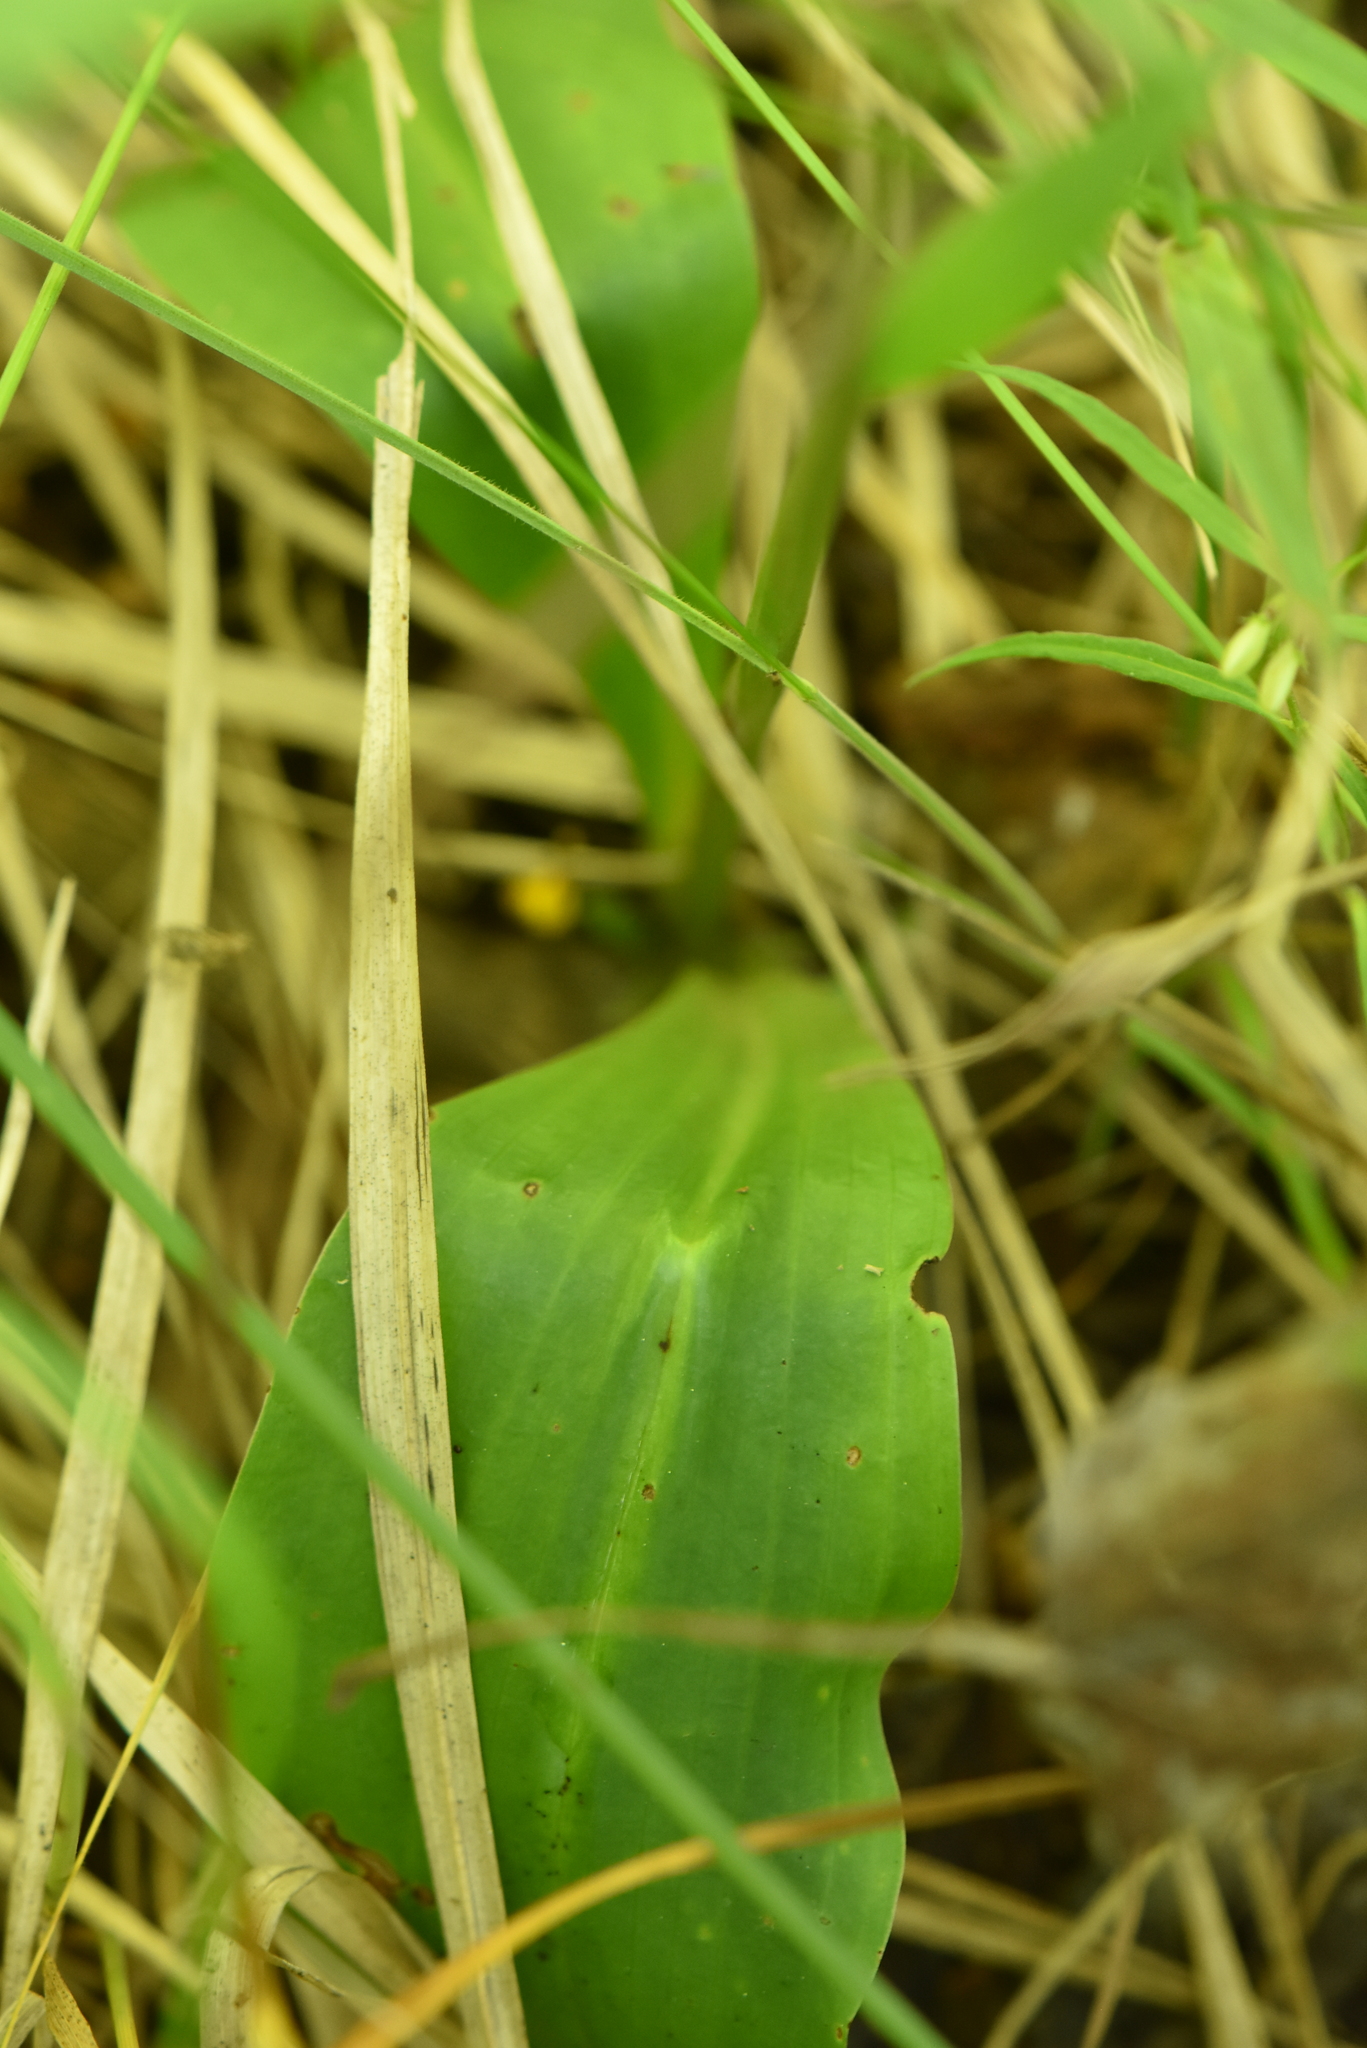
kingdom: Plantae
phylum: Tracheophyta
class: Liliopsida
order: Asparagales
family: Orchidaceae
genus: Platanthera
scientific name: Platanthera bifolia
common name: Lesser butterfly-orchid
